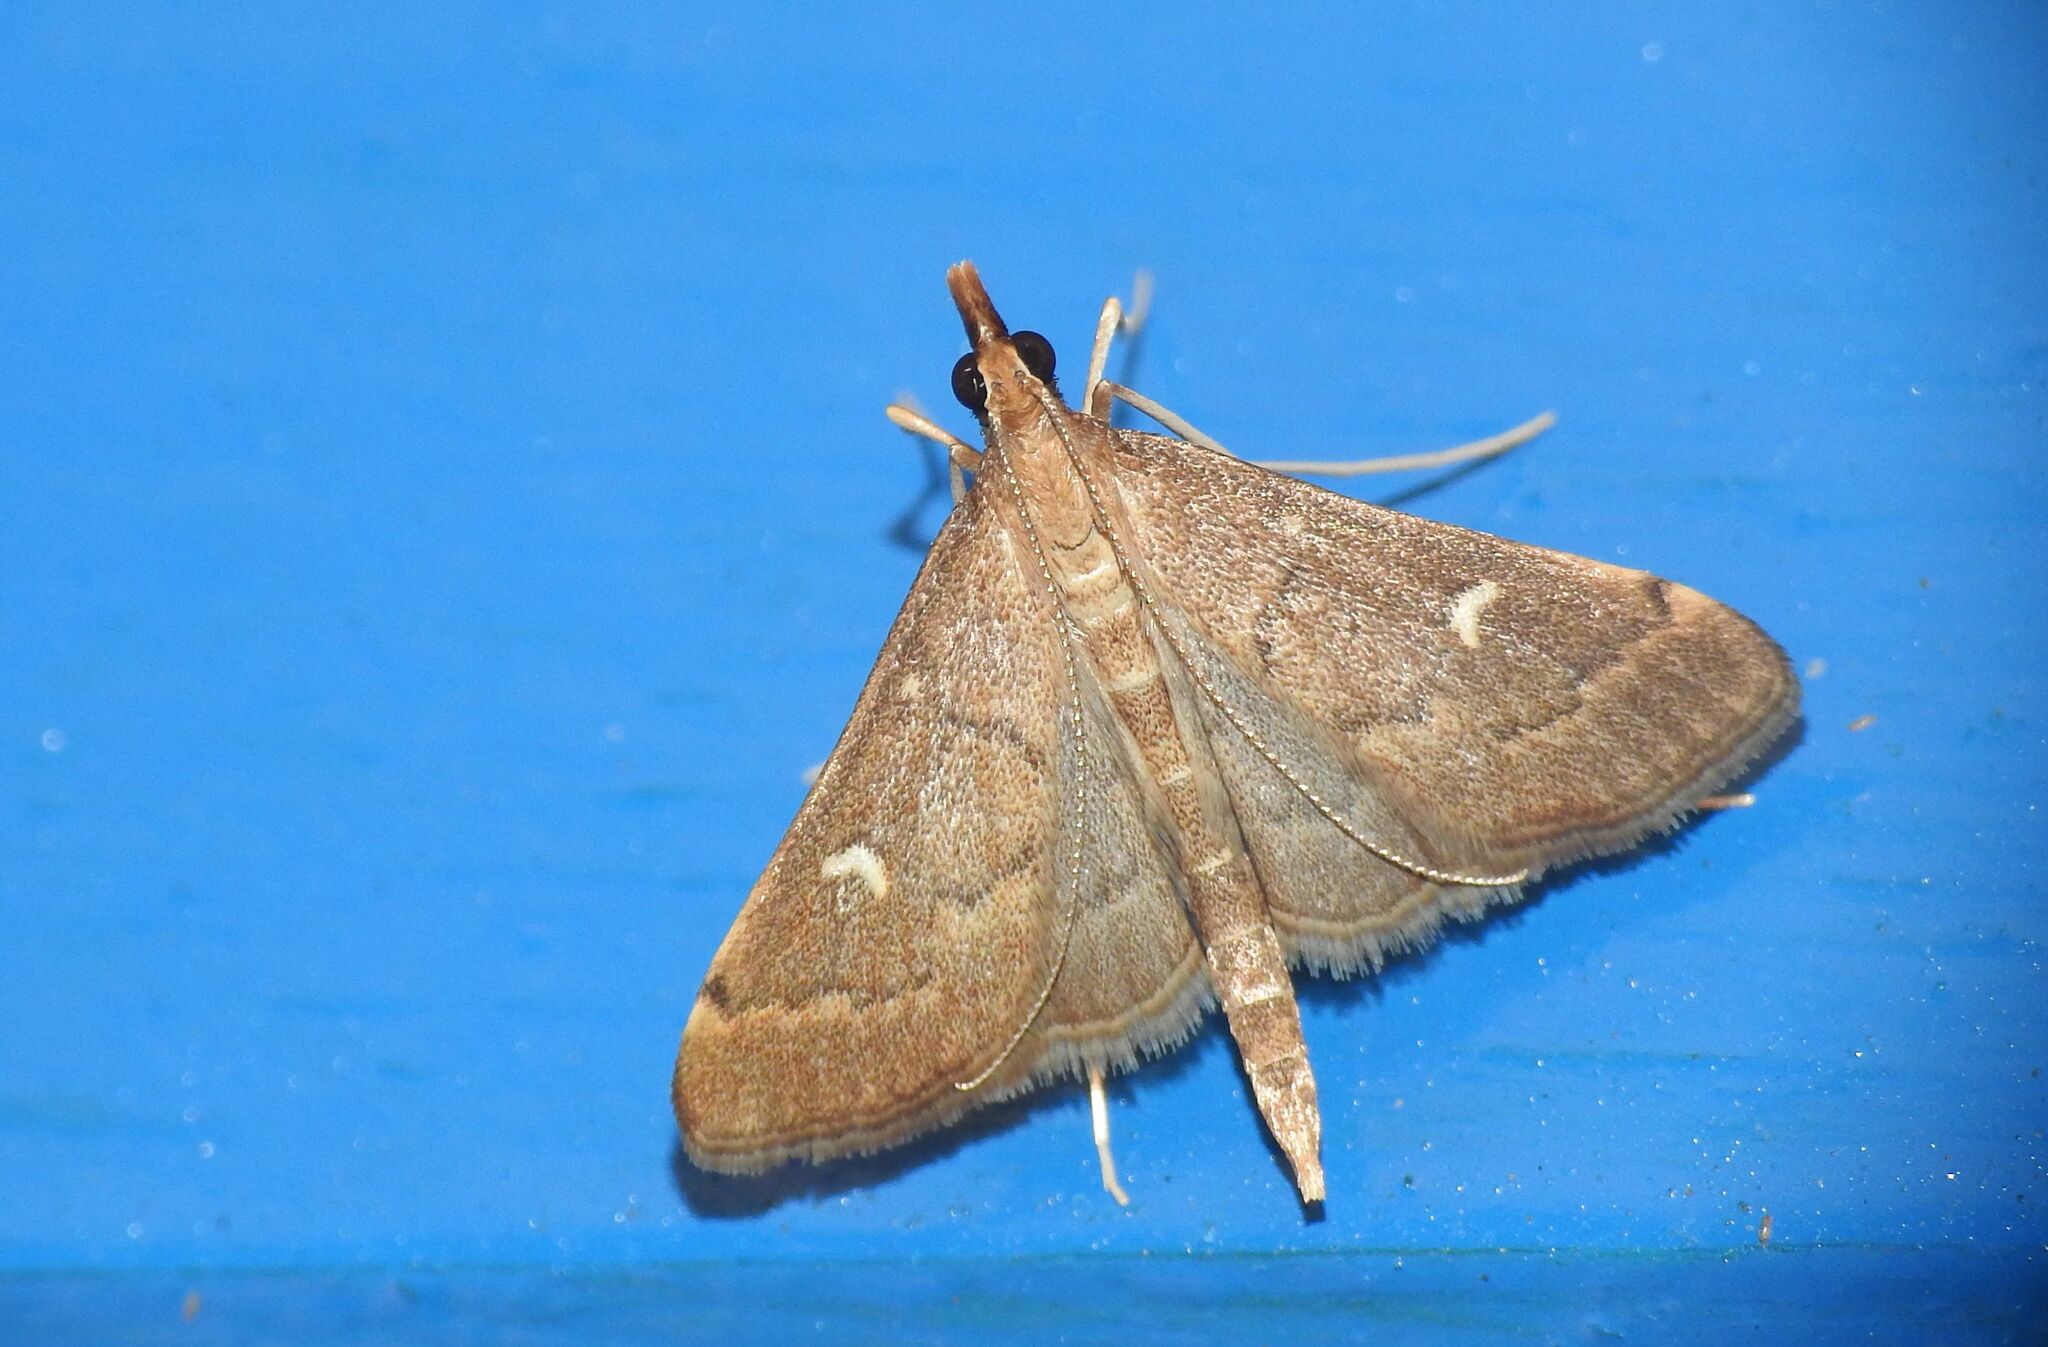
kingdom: Animalia
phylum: Arthropoda
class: Insecta
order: Lepidoptera
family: Crambidae
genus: Stenia
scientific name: Stenia Dolicharthria punctalis
